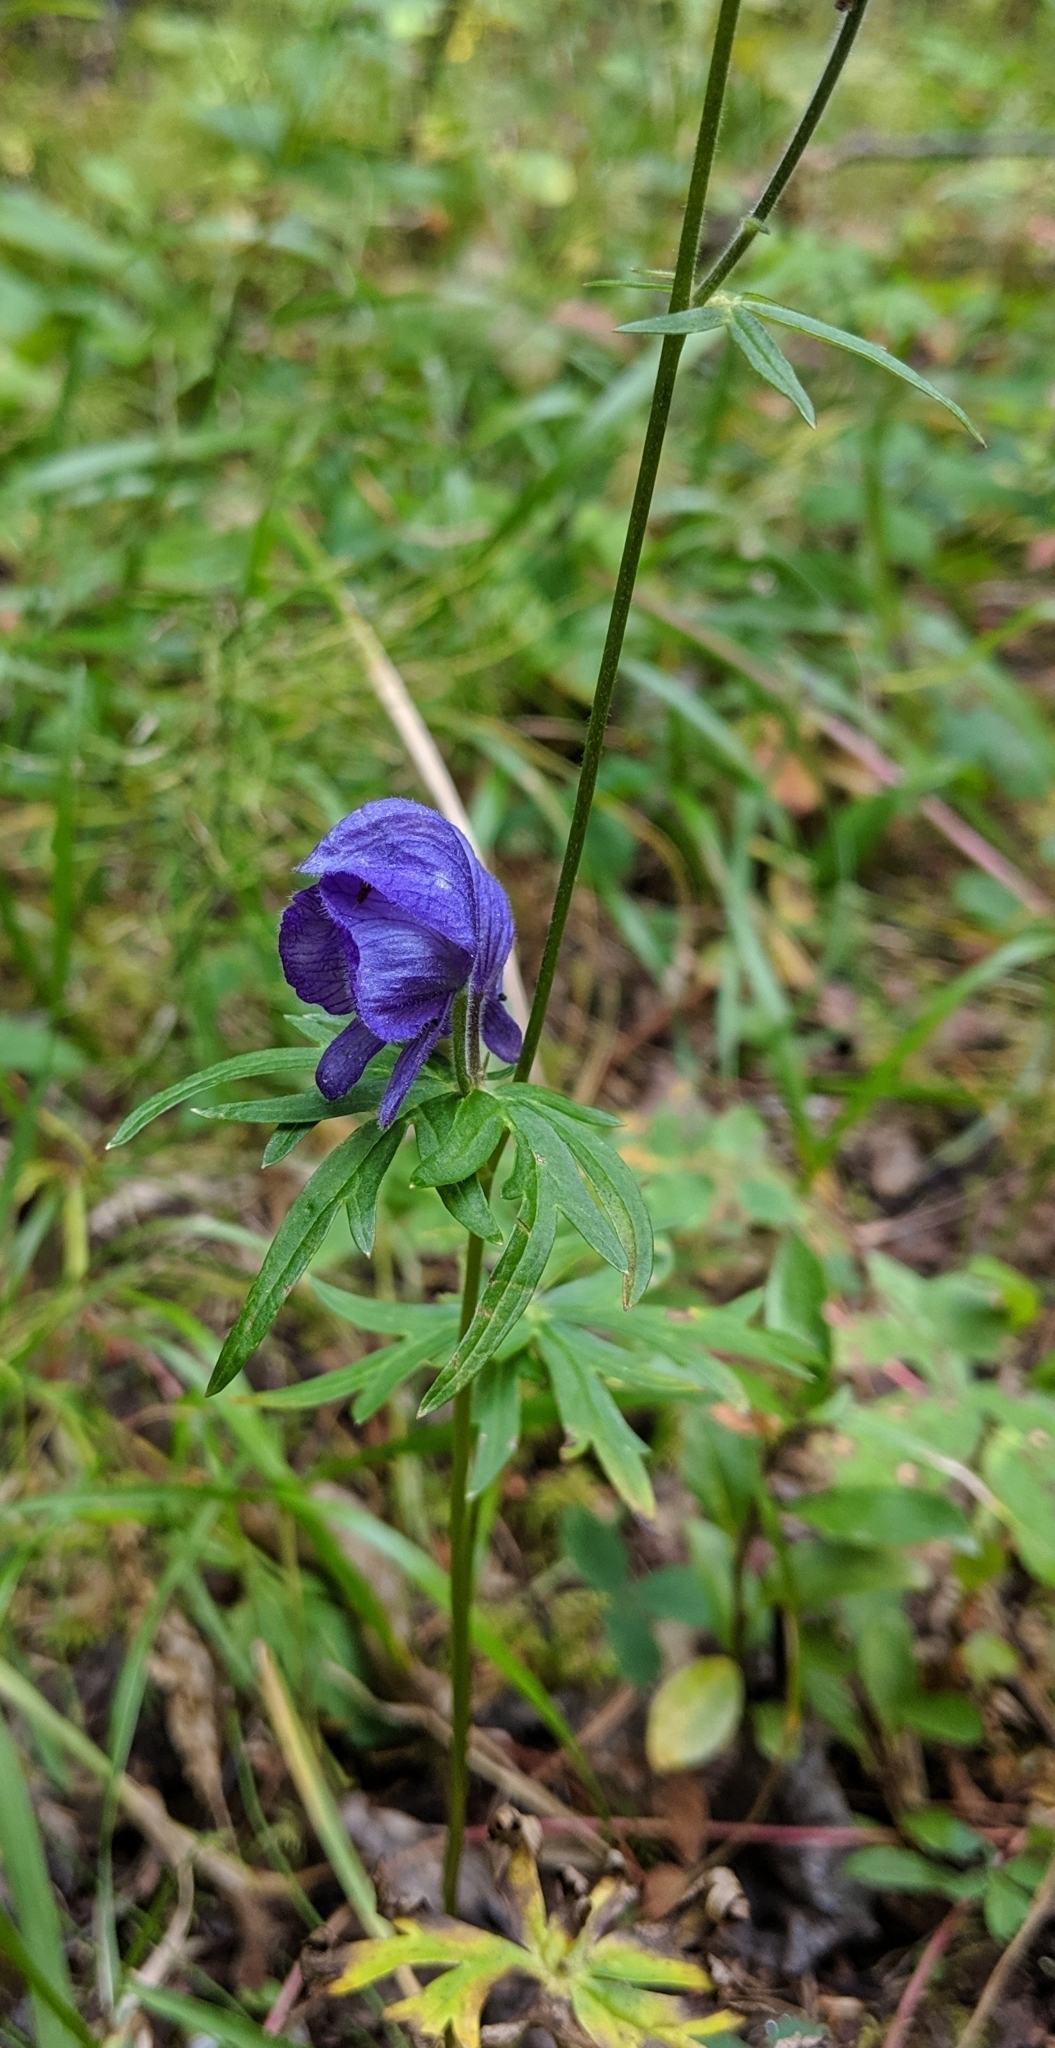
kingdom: Plantae
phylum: Tracheophyta
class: Magnoliopsida
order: Ranunculales
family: Ranunculaceae
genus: Aconitum
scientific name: Aconitum delphiniifolium
